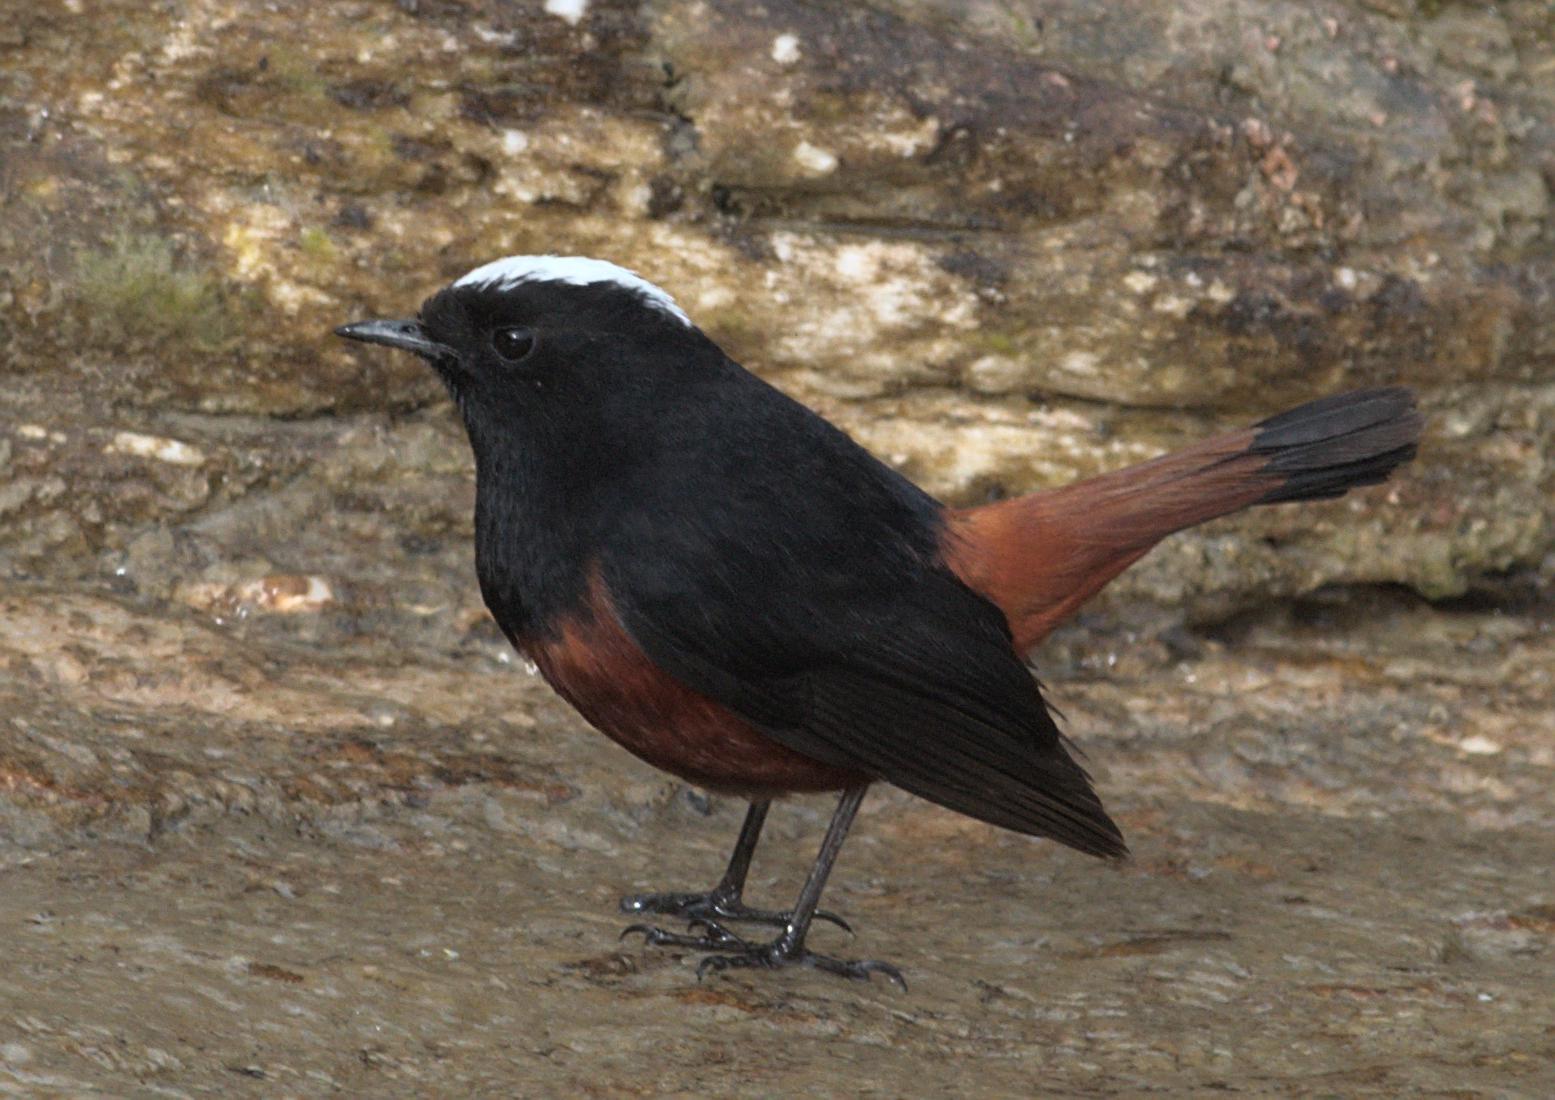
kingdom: Animalia
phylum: Chordata
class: Aves
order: Passeriformes
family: Muscicapidae
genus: Chaimarrornis
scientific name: Chaimarrornis leucocephalus
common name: White-capped redstart
